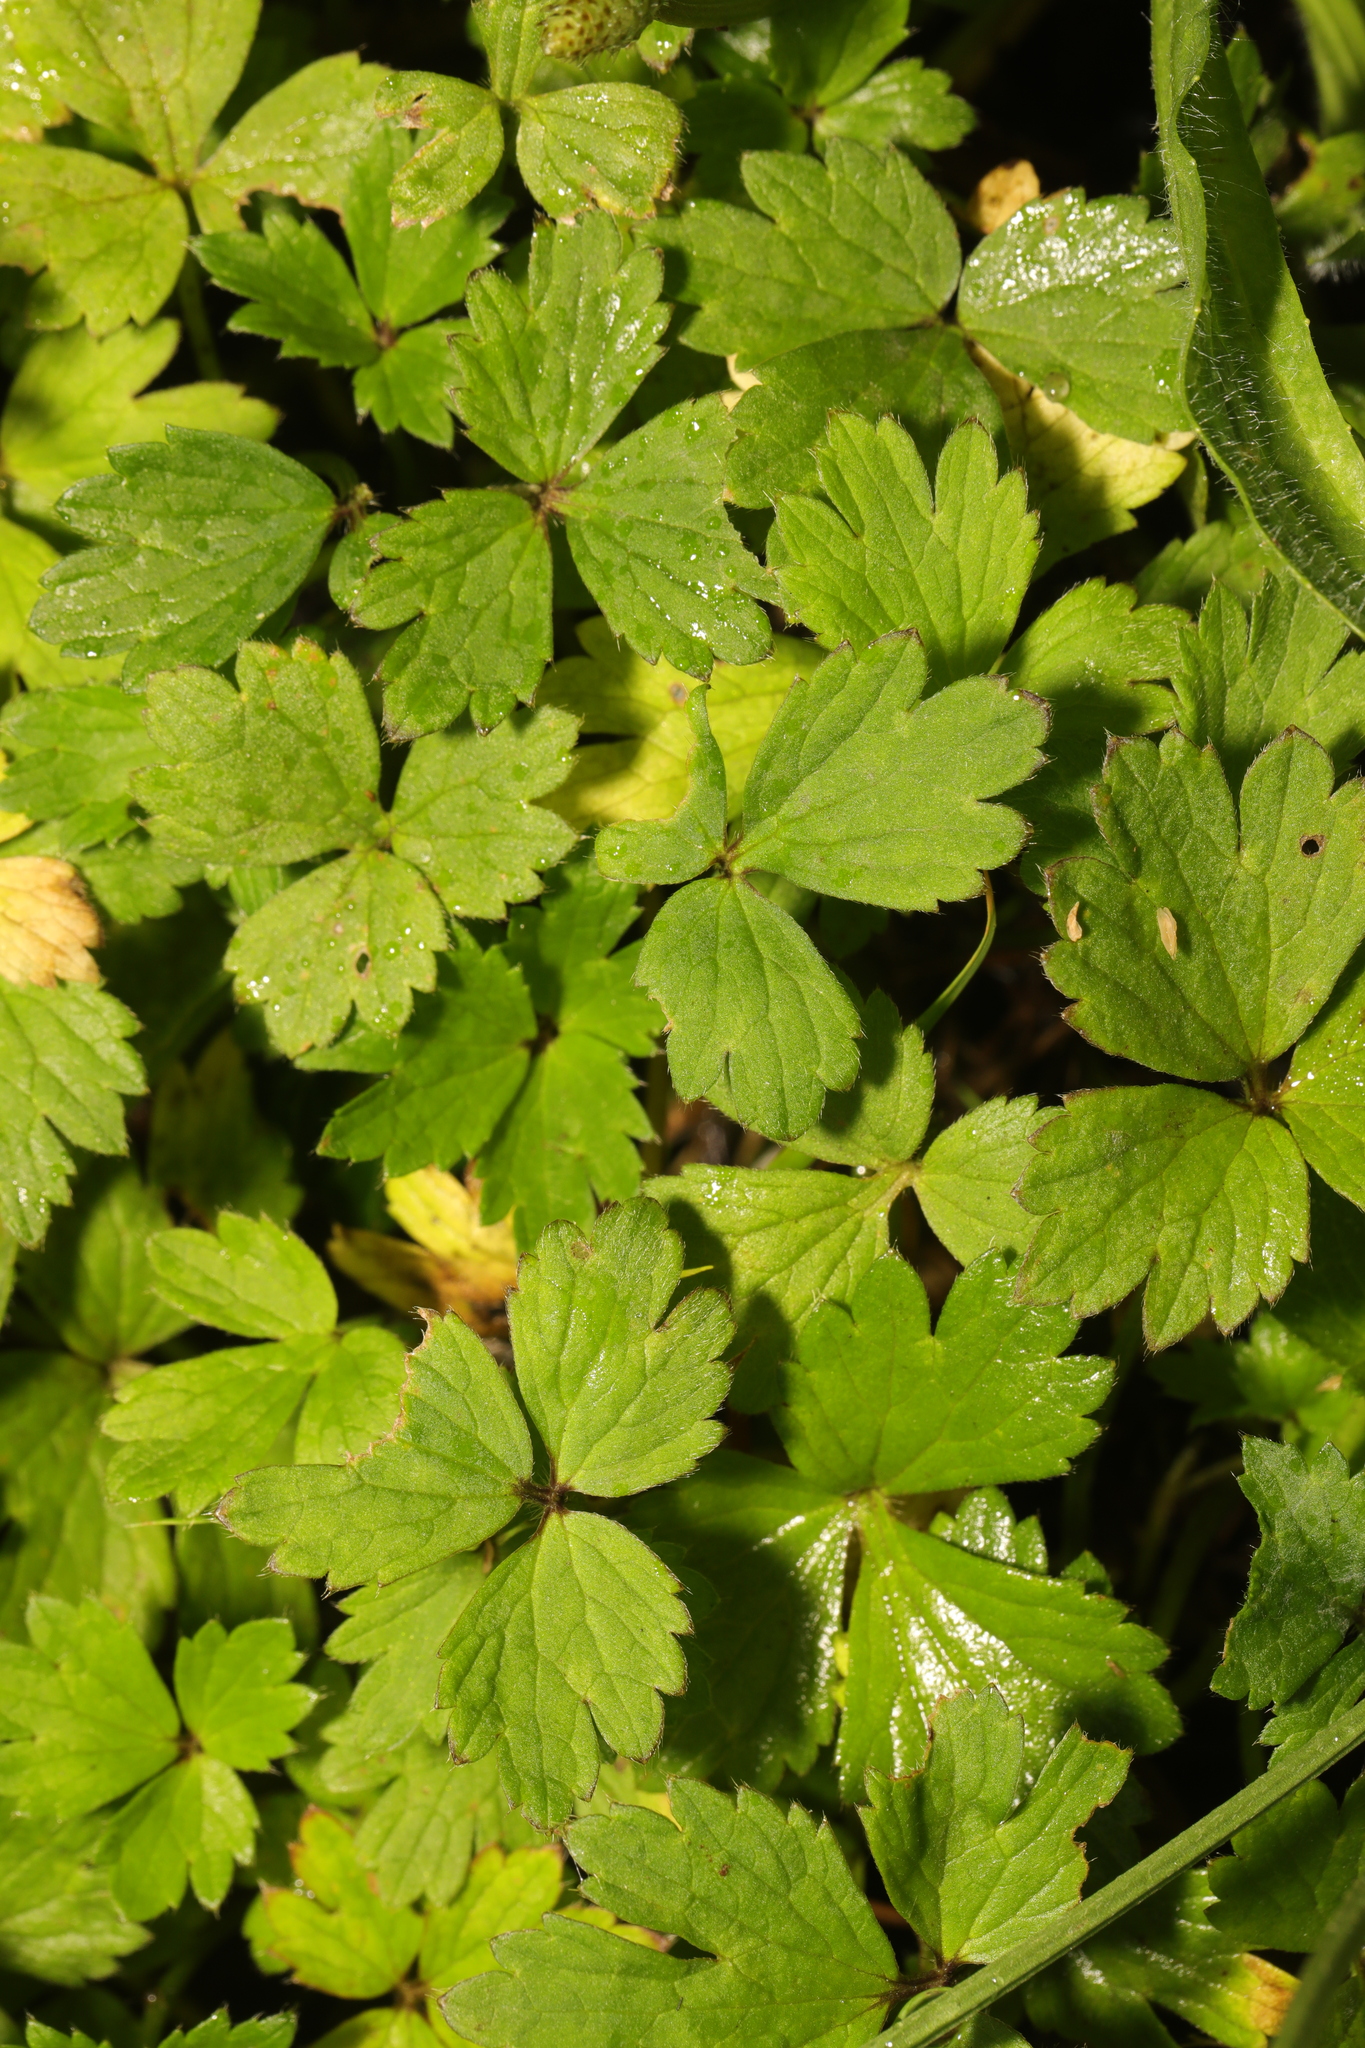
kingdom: Plantae
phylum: Tracheophyta
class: Magnoliopsida
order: Ranunculales
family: Ranunculaceae
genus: Ranunculus
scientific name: Ranunculus repens
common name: Creeping buttercup
